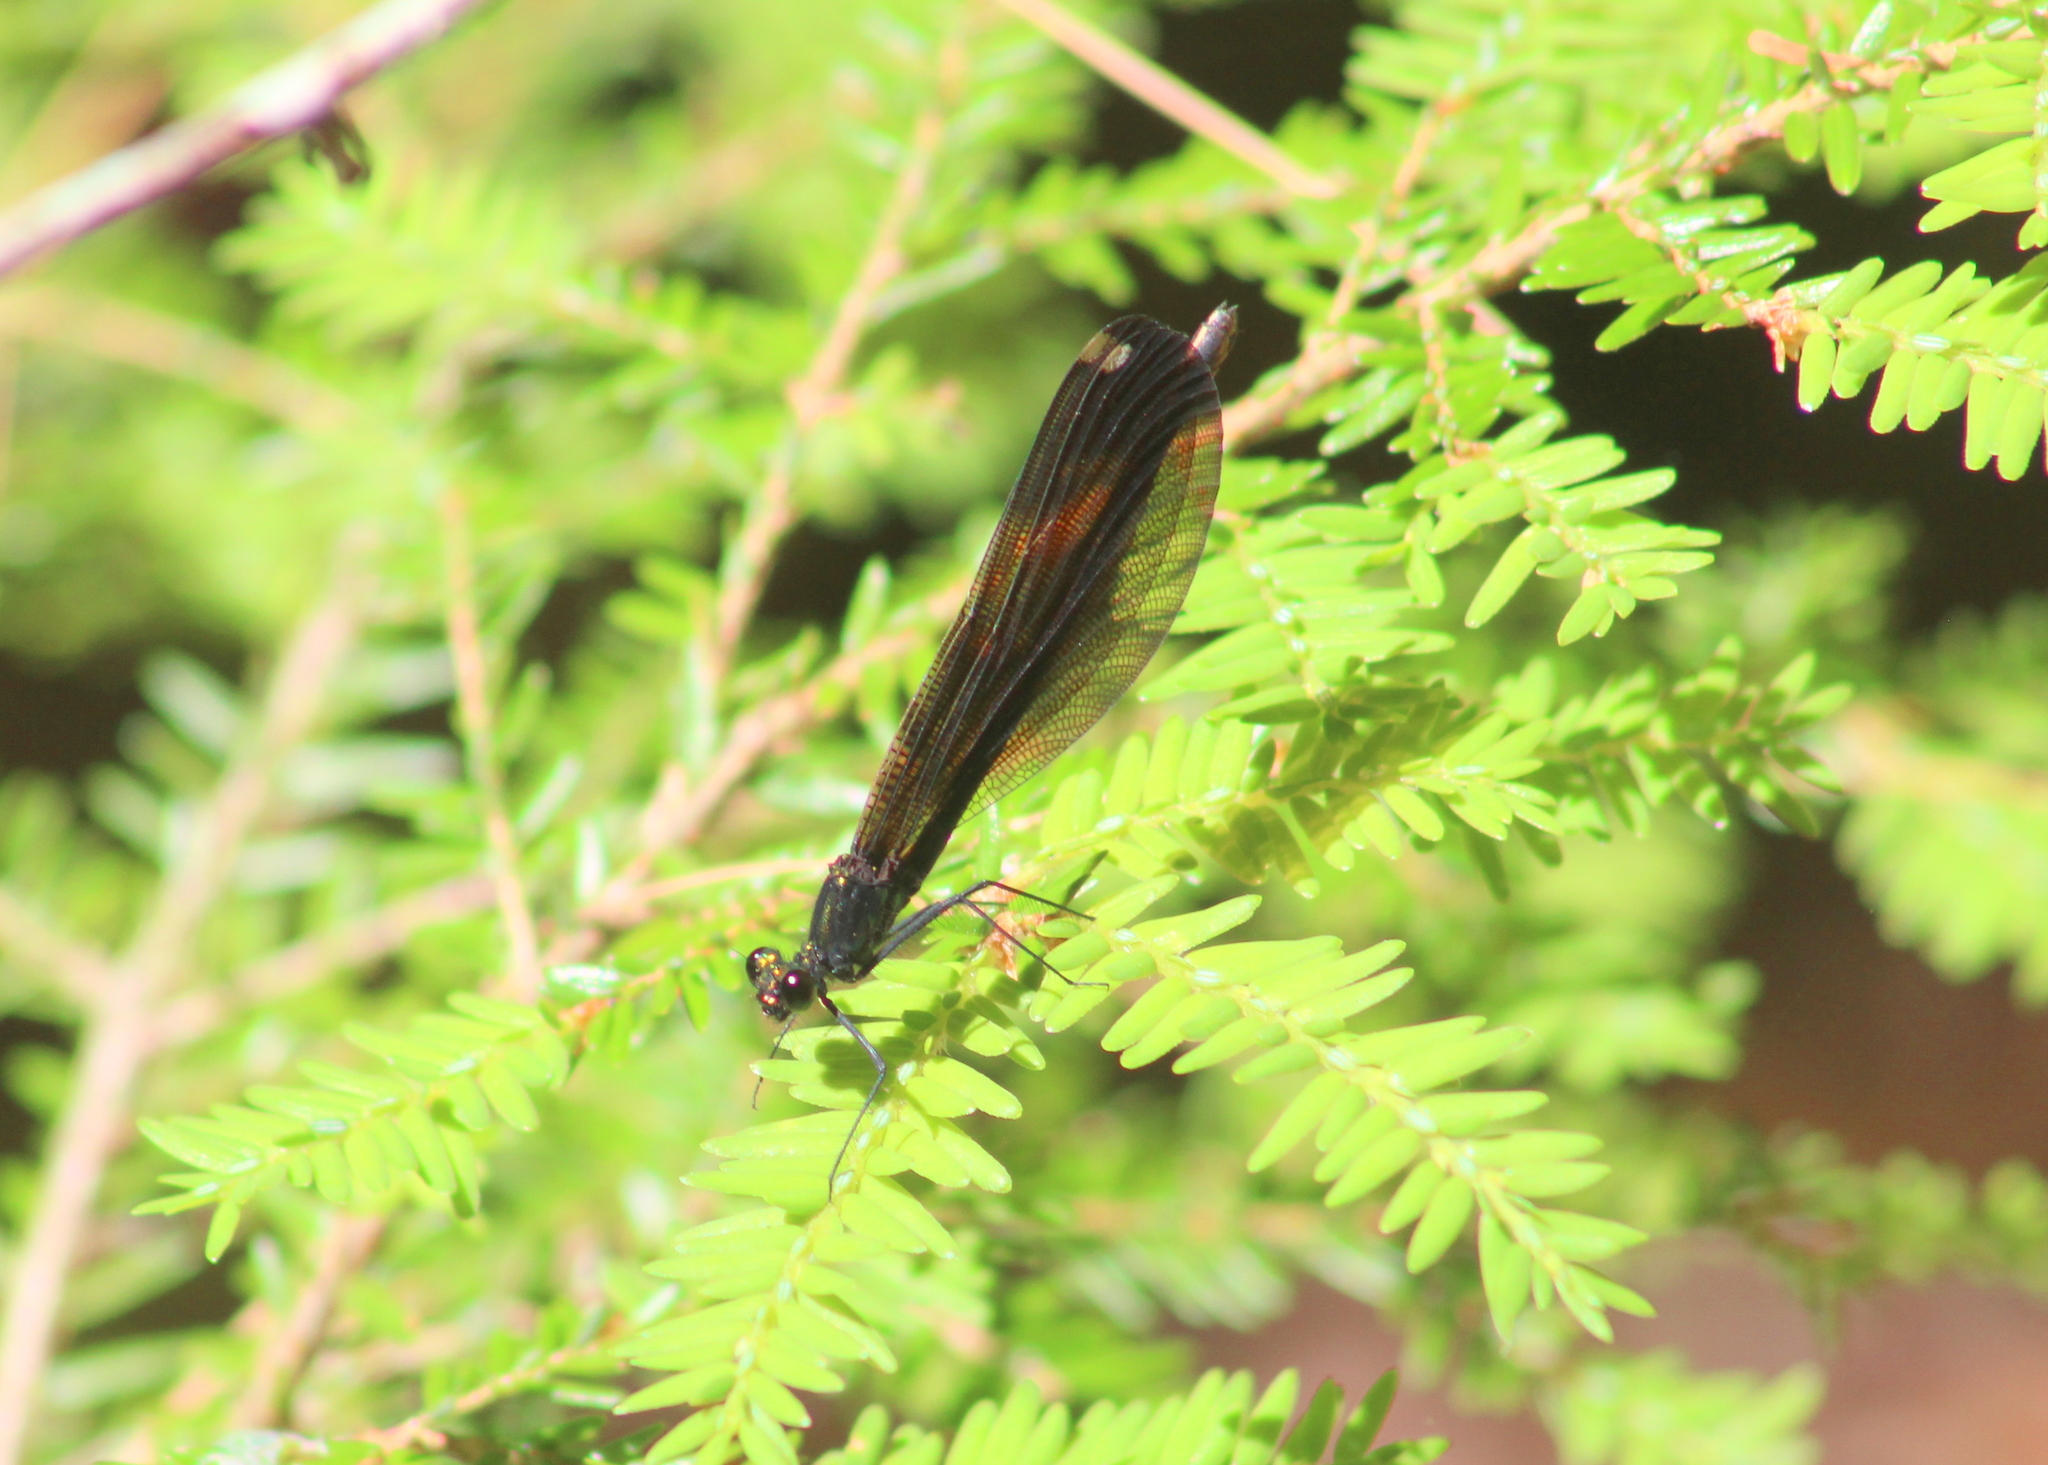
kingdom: Animalia
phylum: Arthropoda
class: Insecta
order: Odonata
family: Calopterygidae
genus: Calopteryx
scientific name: Calopteryx maculata
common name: Ebony jewelwing
